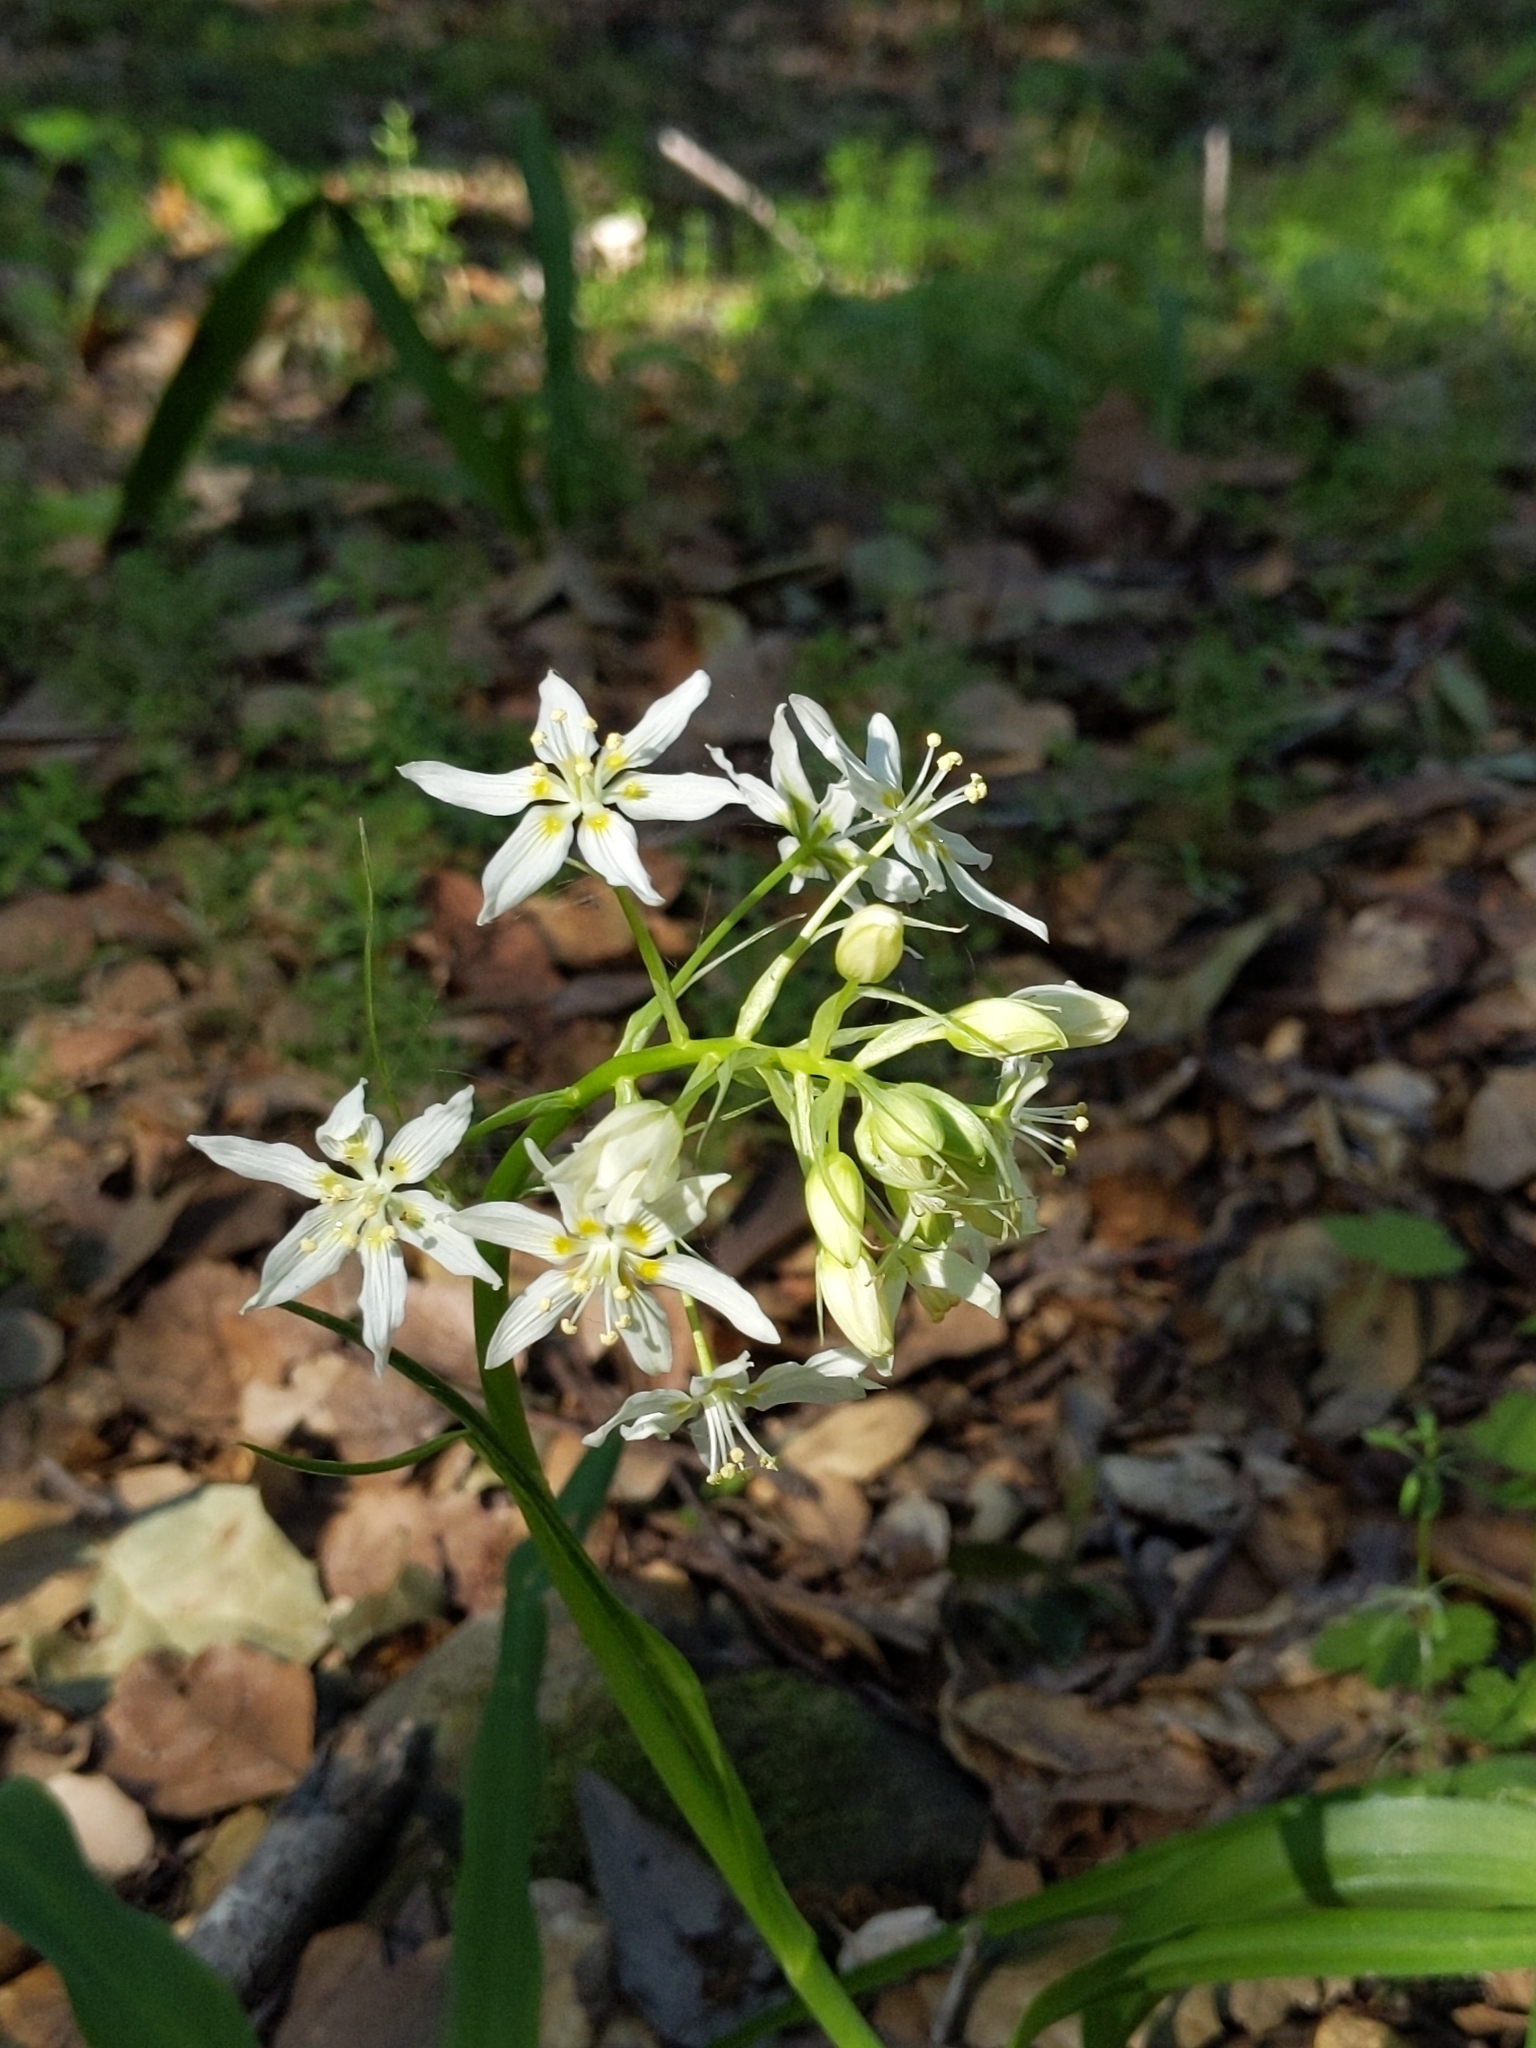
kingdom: Plantae
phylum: Tracheophyta
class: Liliopsida
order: Liliales
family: Melanthiaceae
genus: Toxicoscordion
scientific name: Toxicoscordion fremontii
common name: Fremont's death camas
